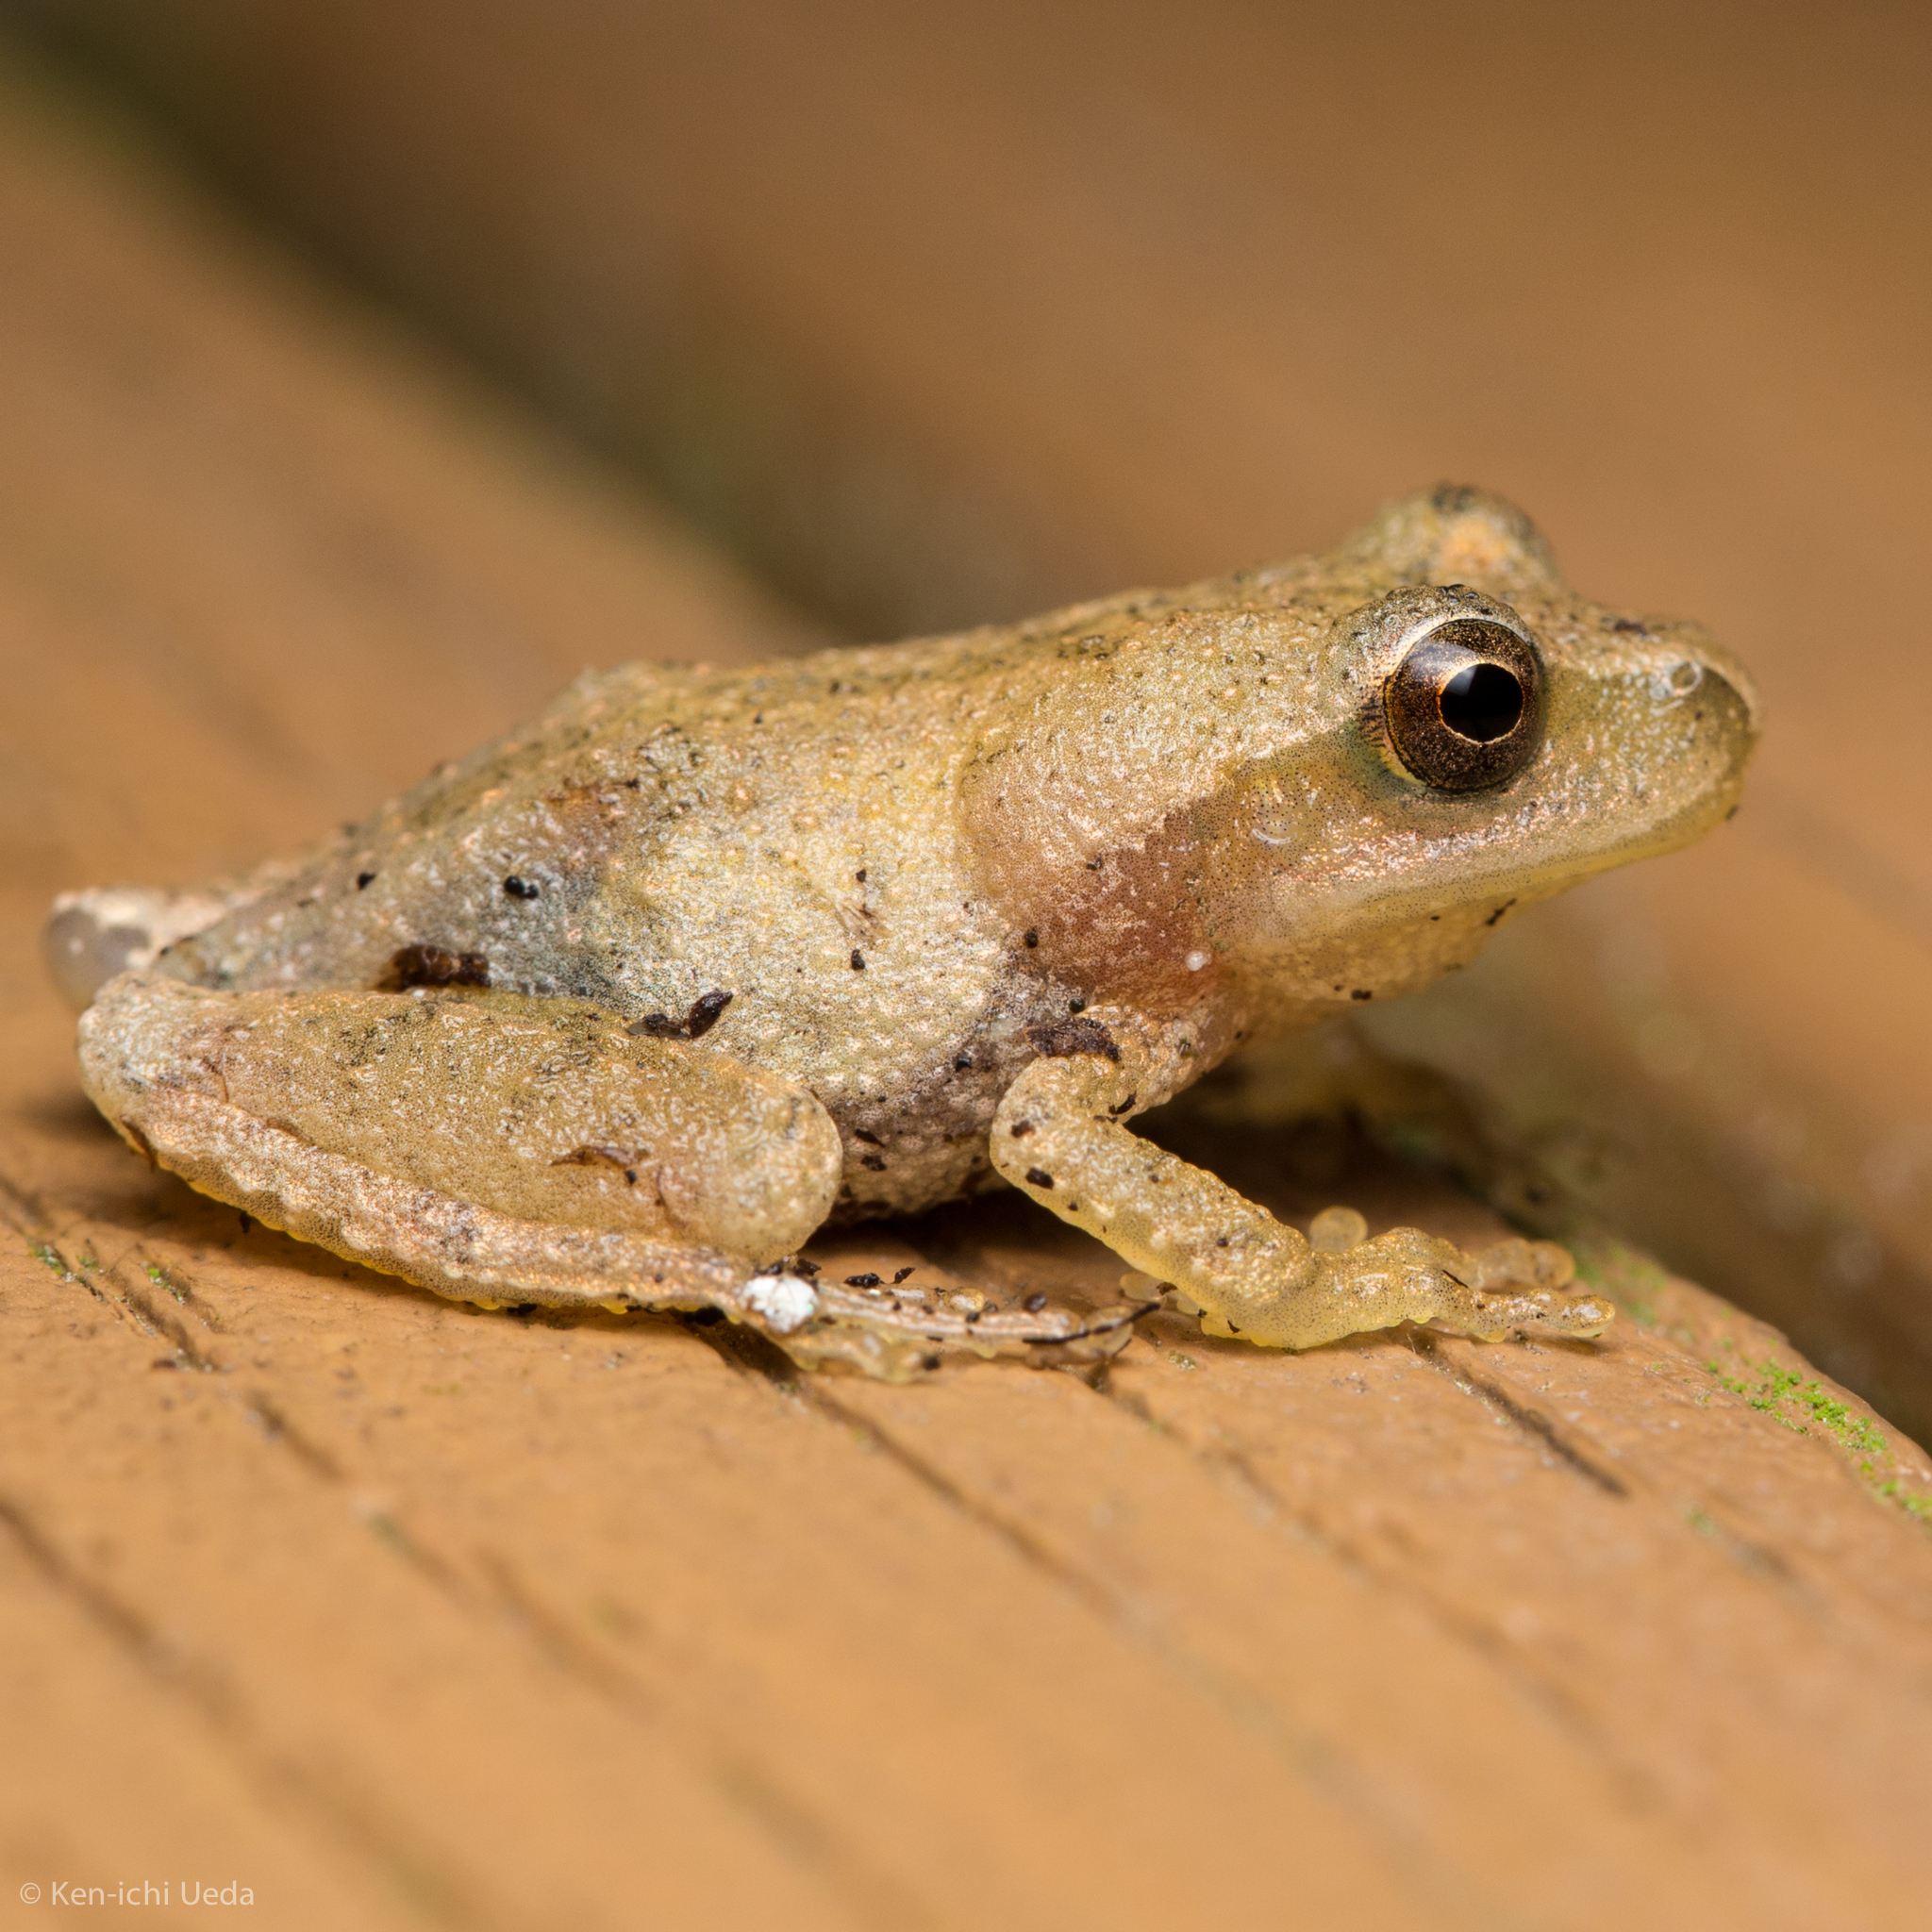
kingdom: Animalia
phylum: Chordata
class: Amphibia
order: Anura
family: Hylidae
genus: Pseudacris
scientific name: Pseudacris crucifer
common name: Spring peeper
